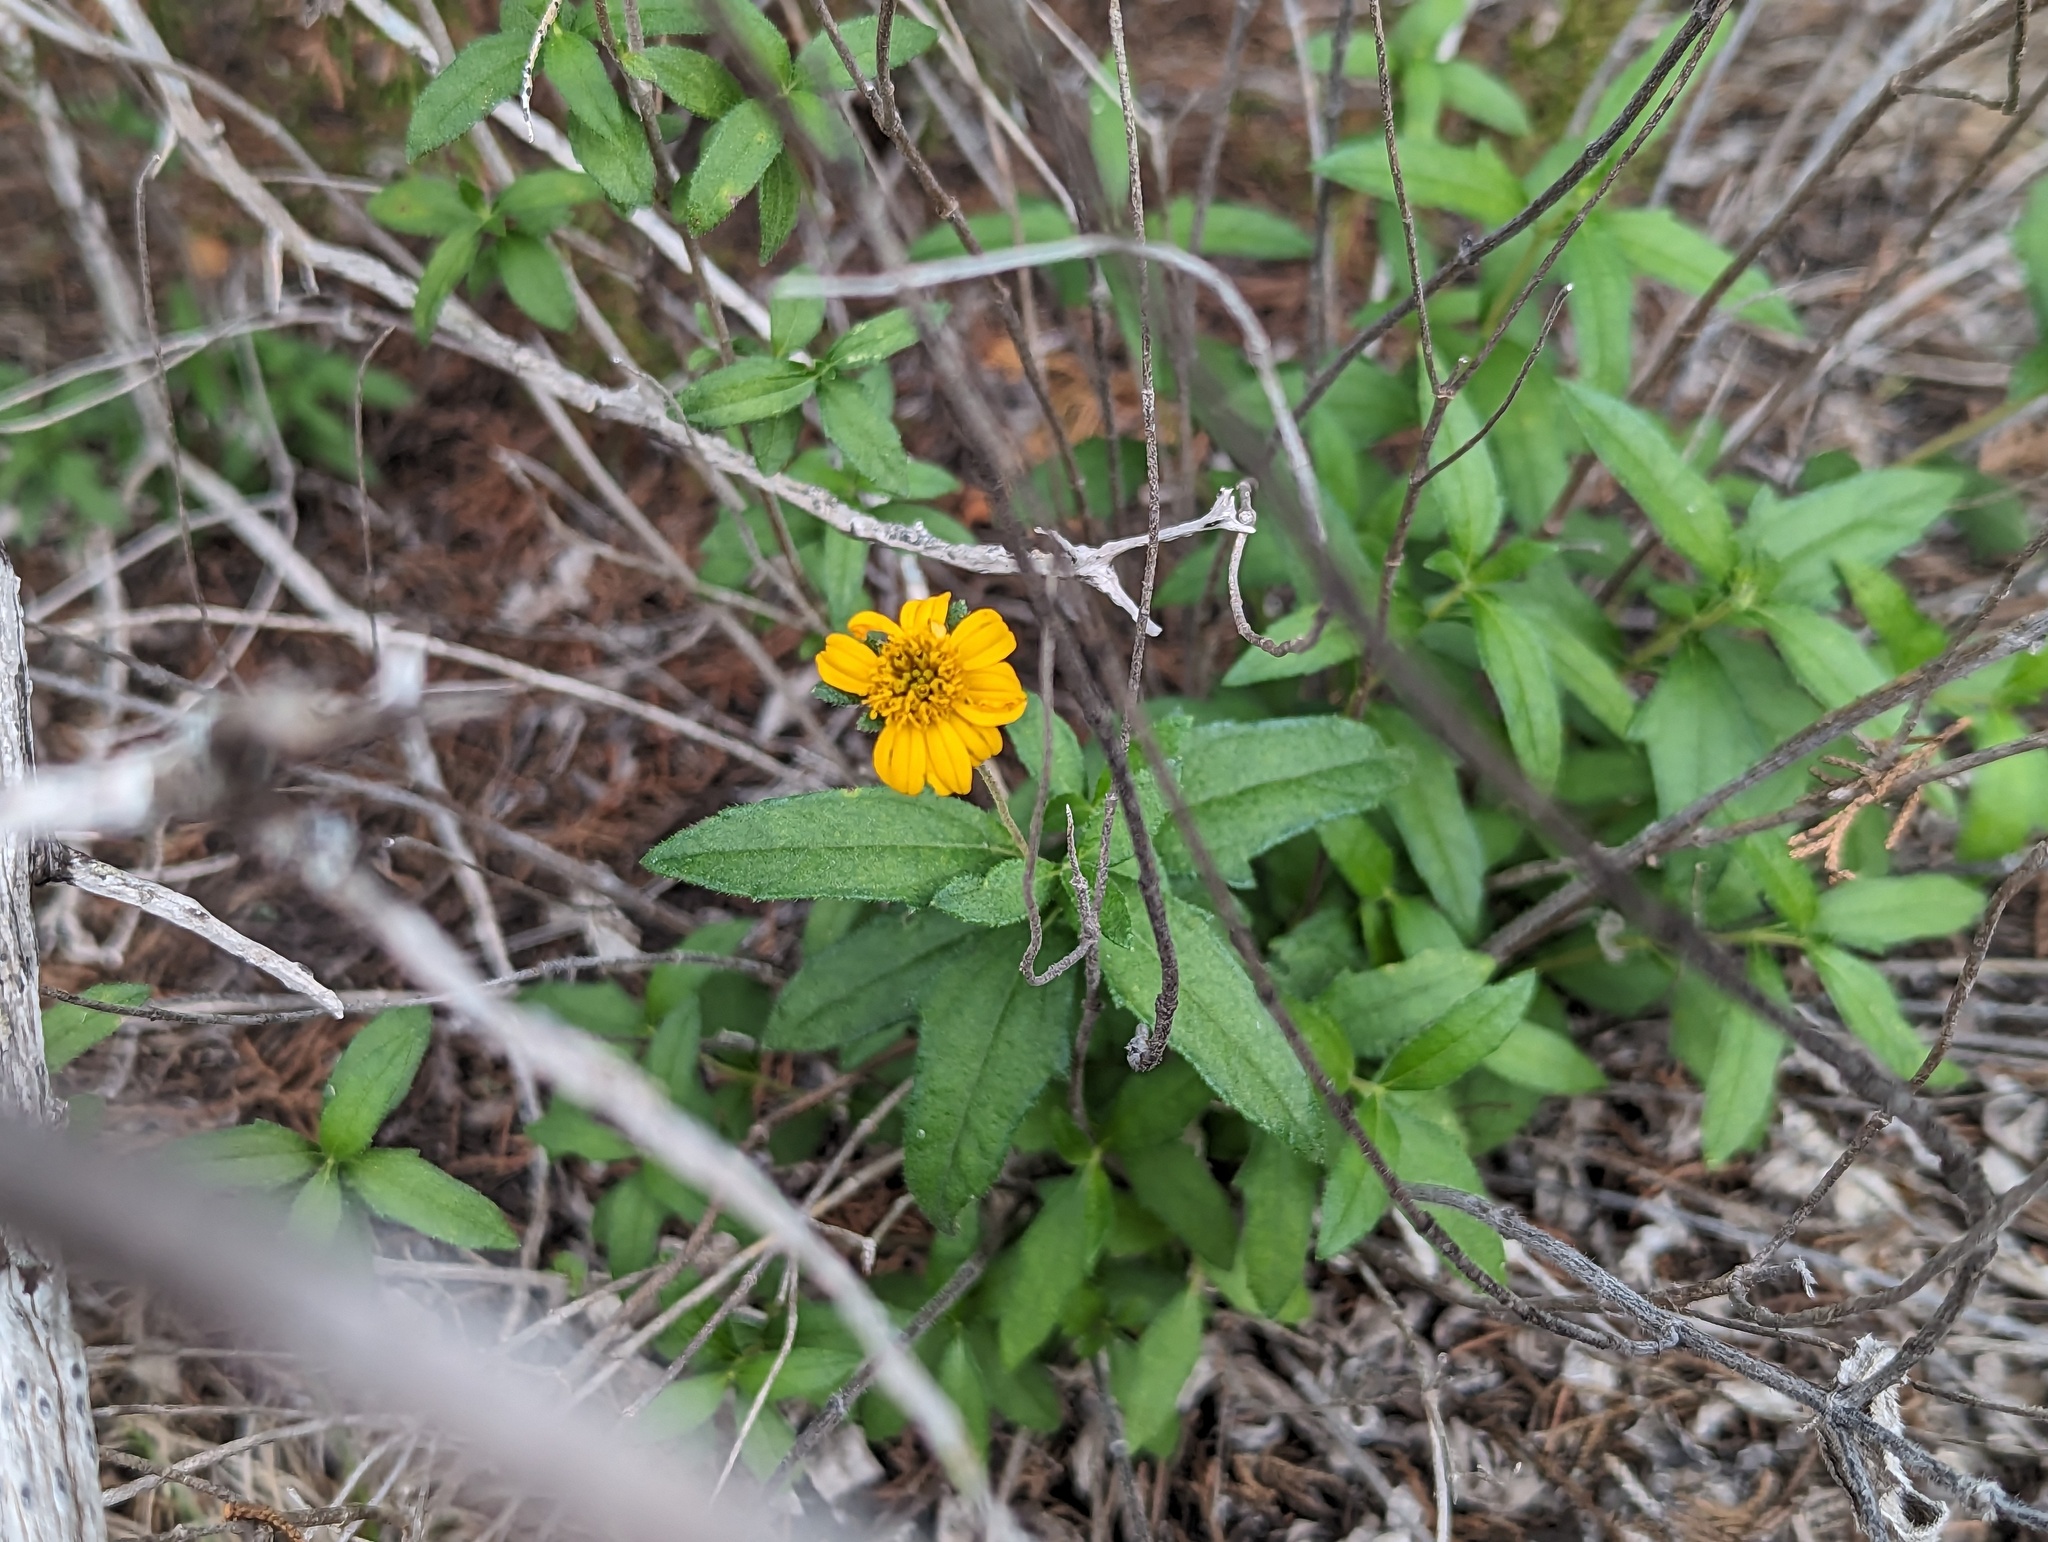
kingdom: Plantae
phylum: Tracheophyta
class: Magnoliopsida
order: Asterales
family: Asteraceae
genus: Wedelia
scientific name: Wedelia acapulcensis
